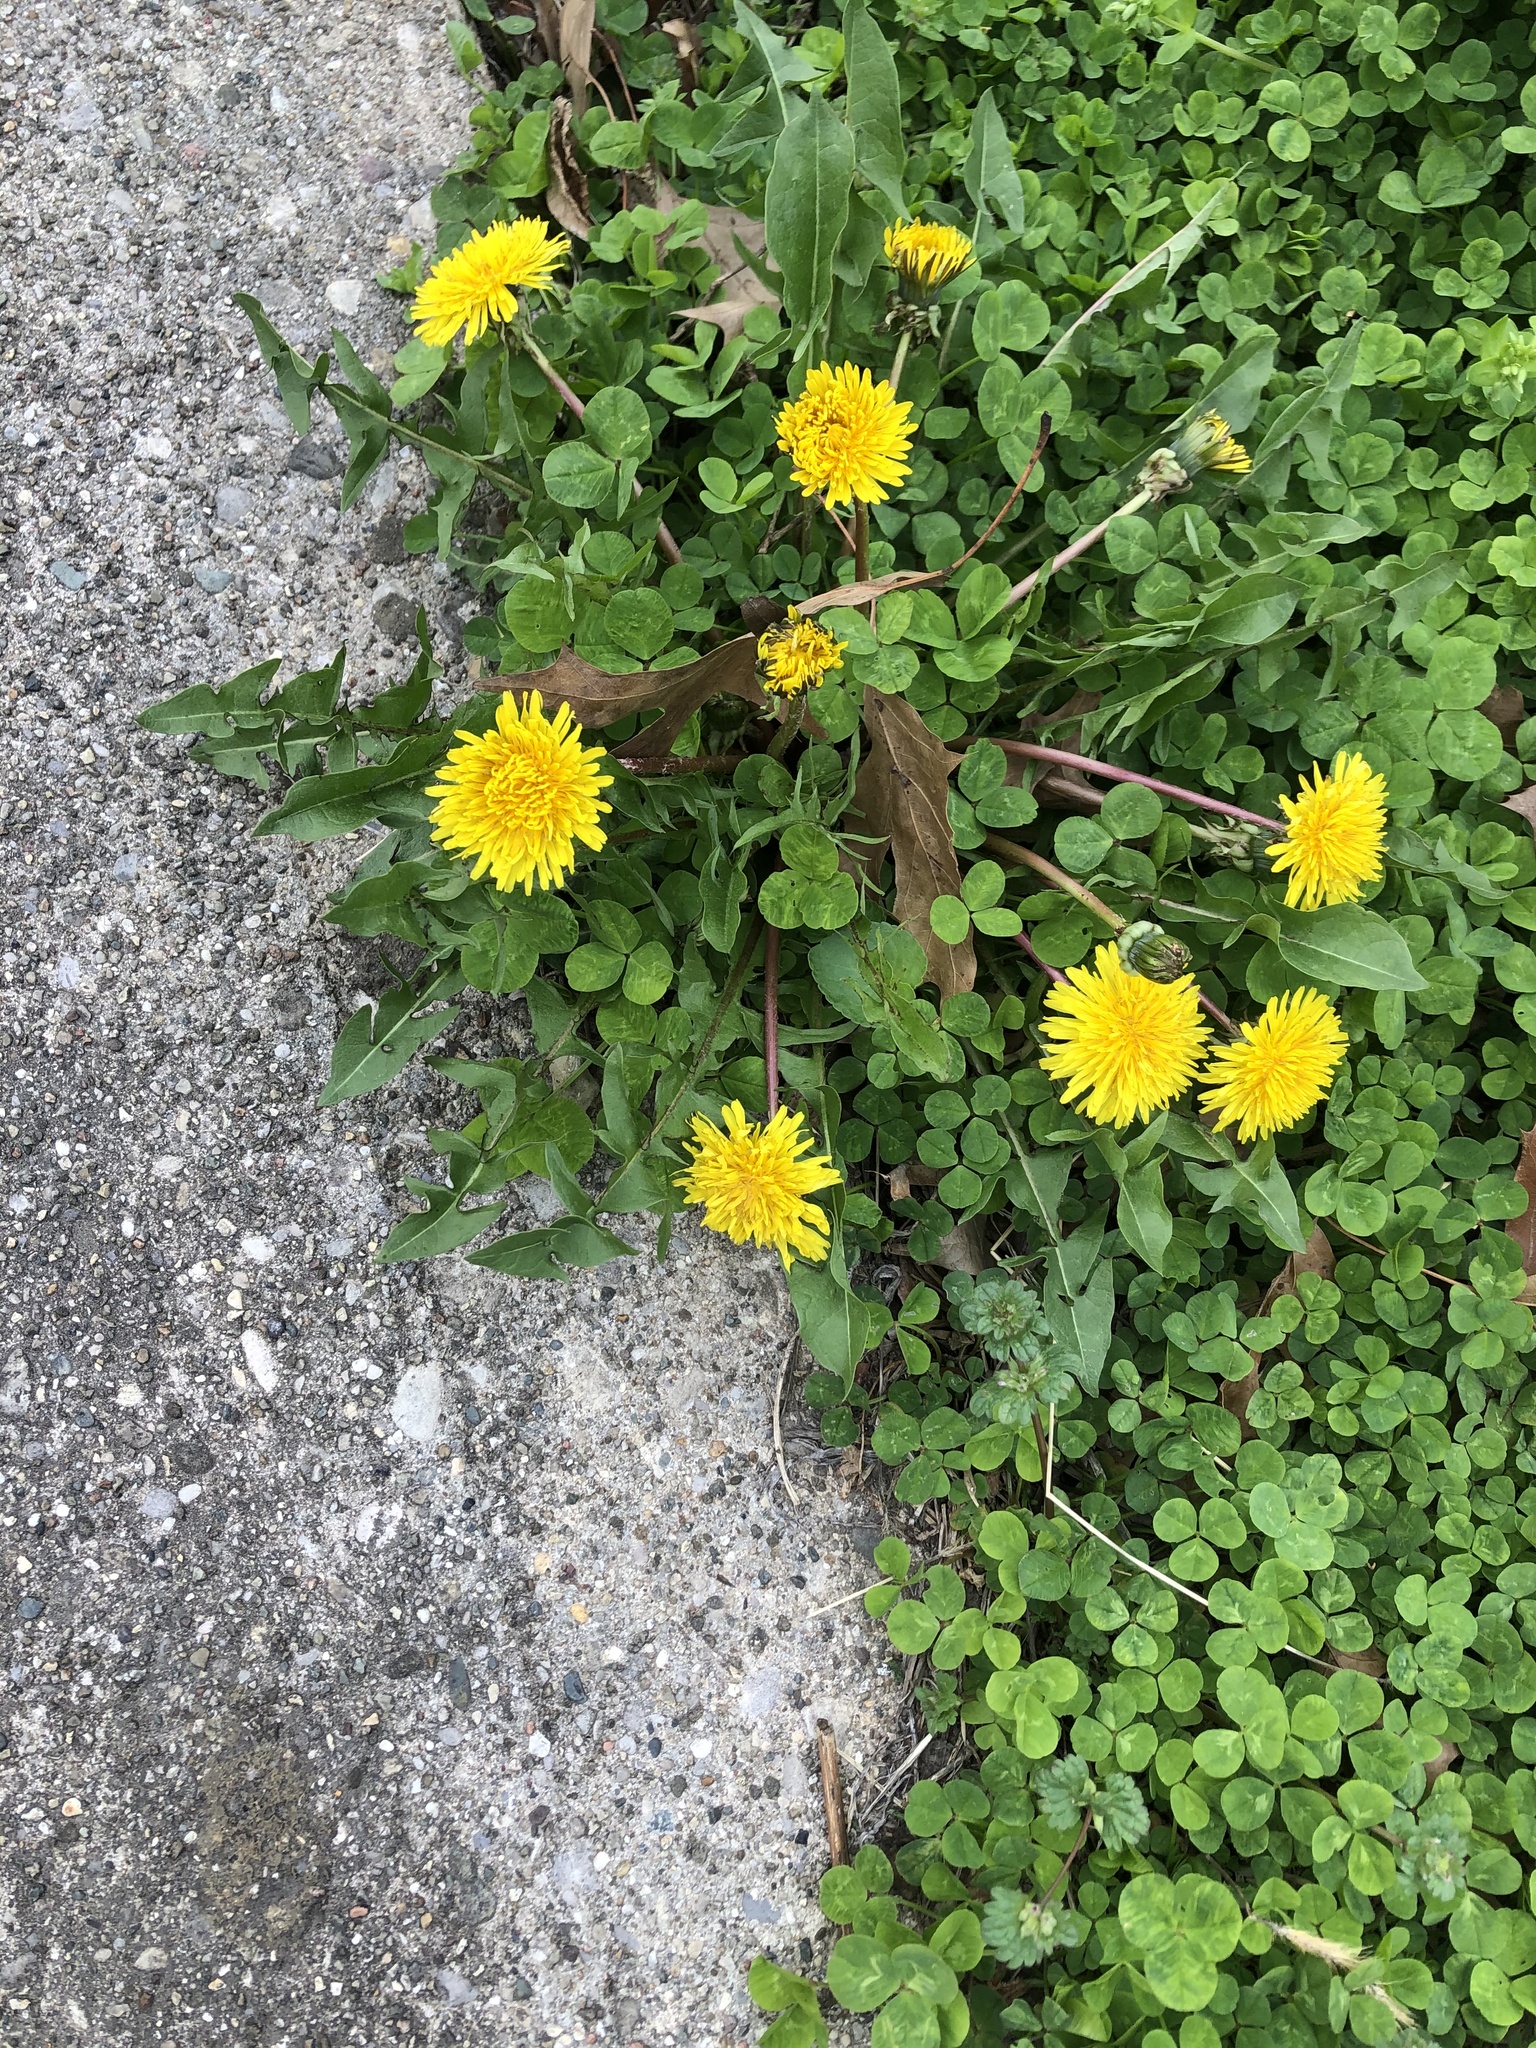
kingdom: Plantae
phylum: Tracheophyta
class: Magnoliopsida
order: Asterales
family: Asteraceae
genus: Taraxacum
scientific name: Taraxacum officinale
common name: Common dandelion
